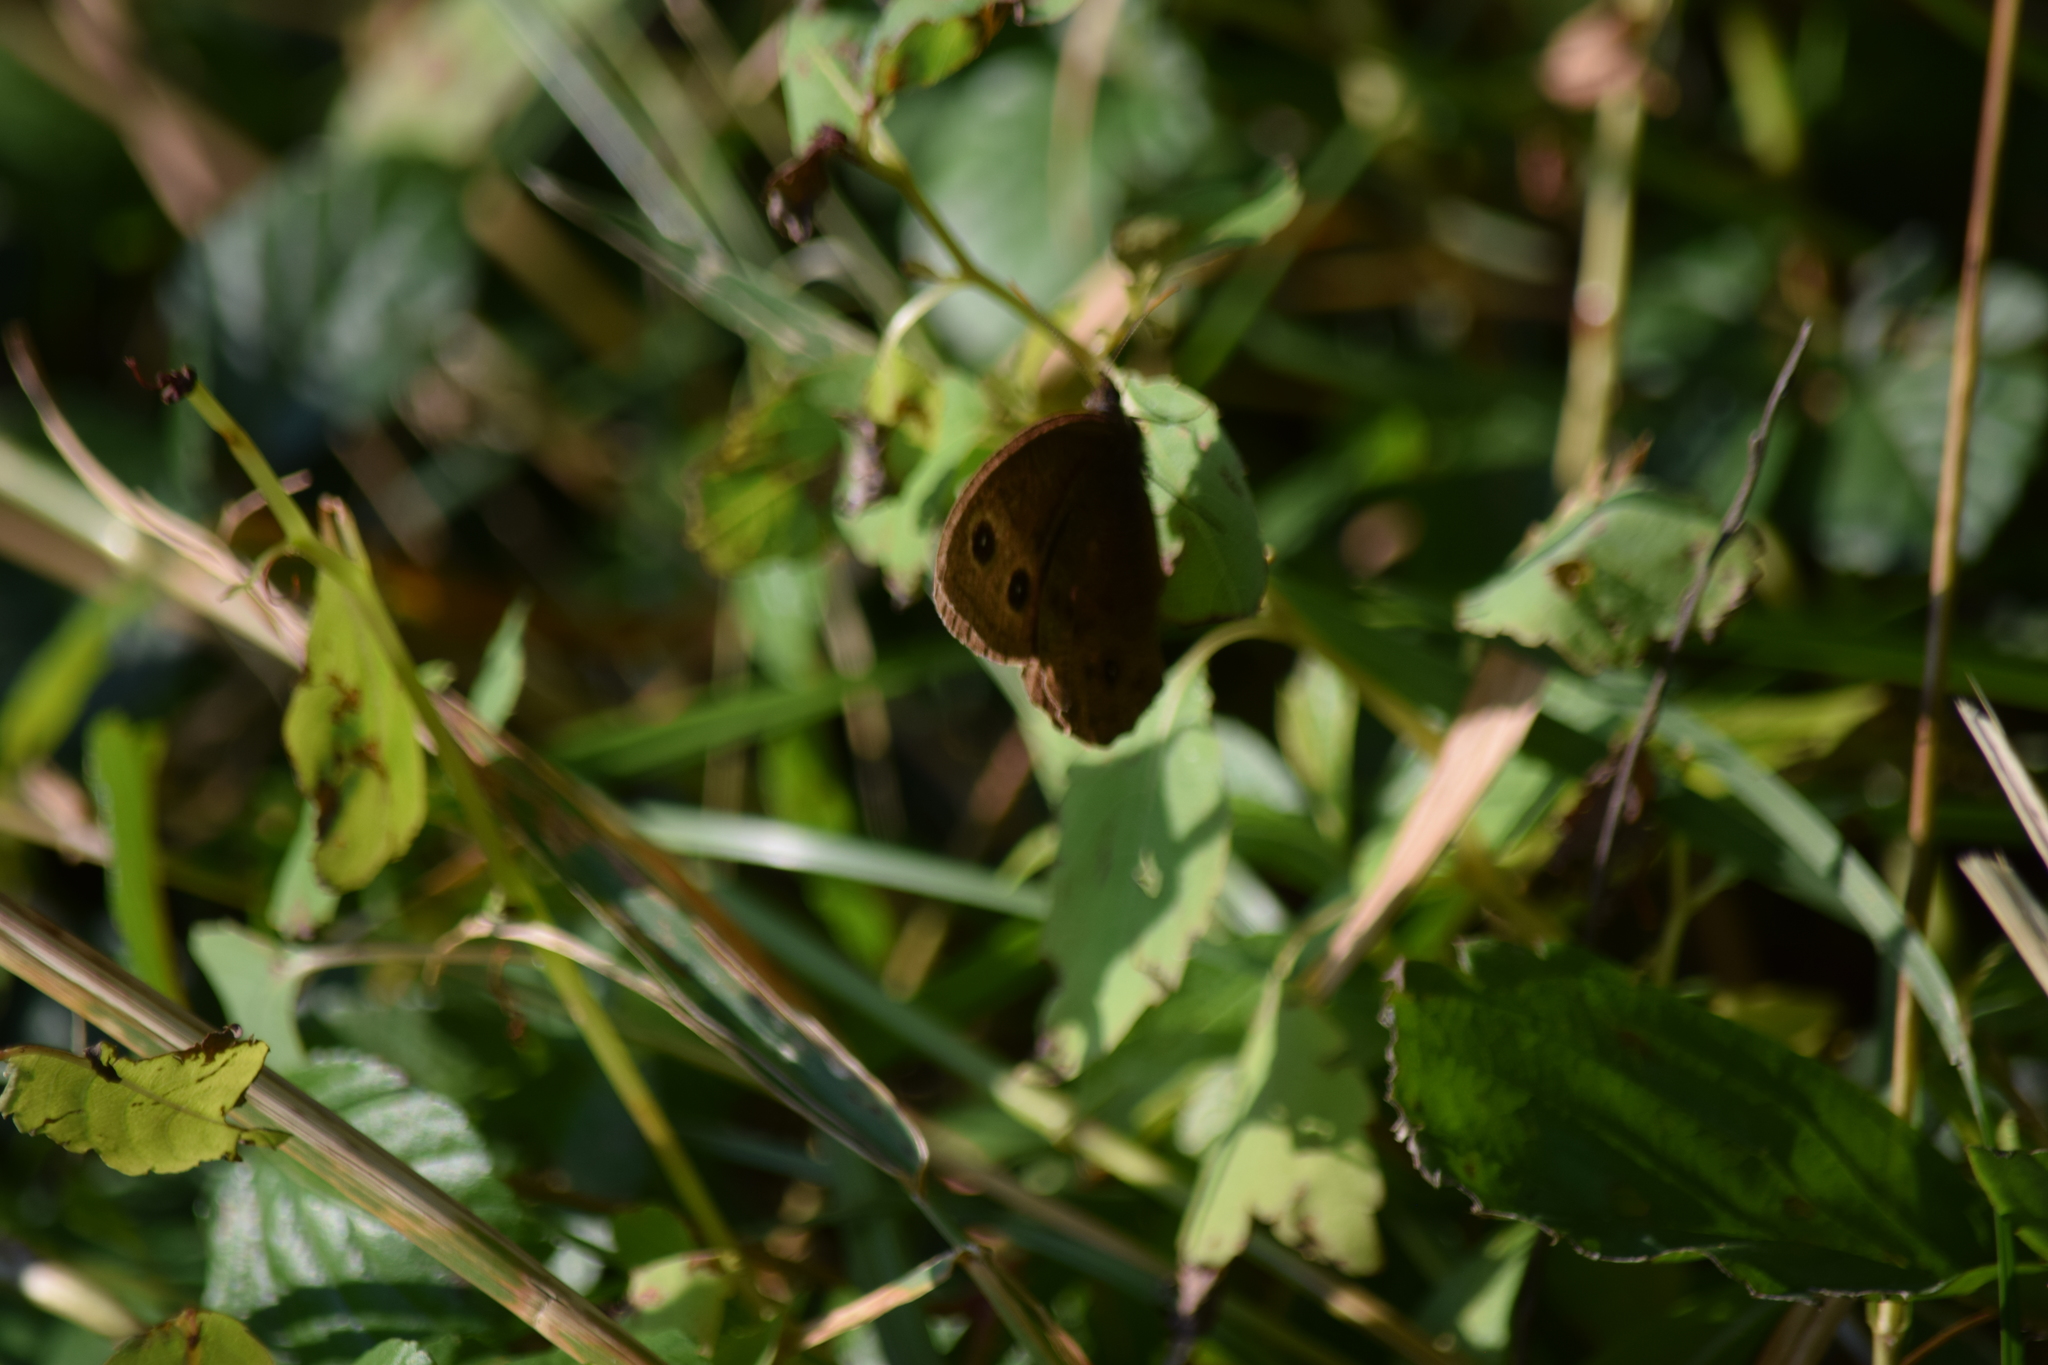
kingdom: Animalia
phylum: Arthropoda
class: Insecta
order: Lepidoptera
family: Nymphalidae
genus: Cercyonis
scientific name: Cercyonis pegala
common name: Common wood-nymph
